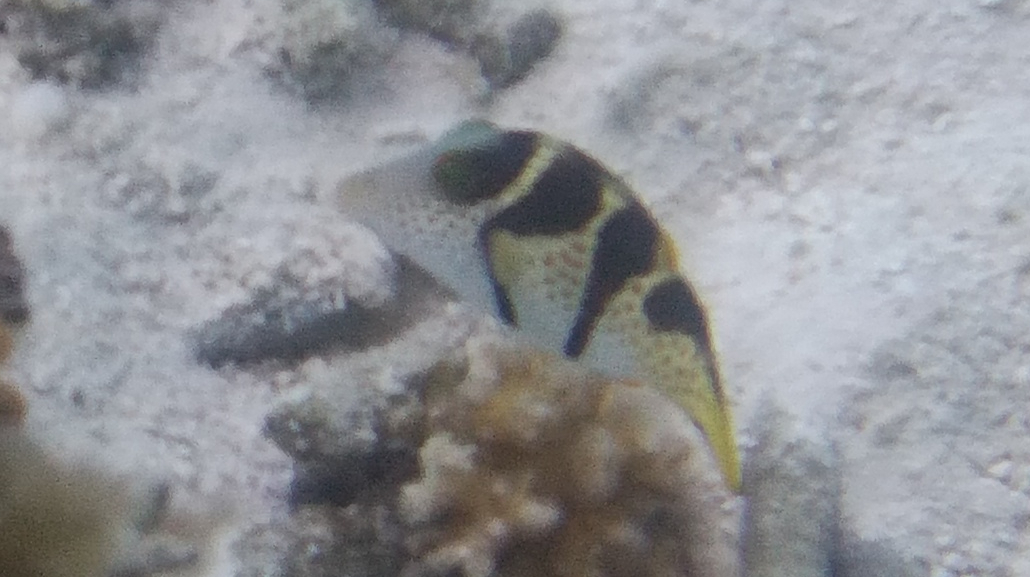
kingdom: Animalia
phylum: Chordata
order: Tetraodontiformes
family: Tetraodontidae
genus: Canthigaster
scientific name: Canthigaster valentini
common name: Banded toby
